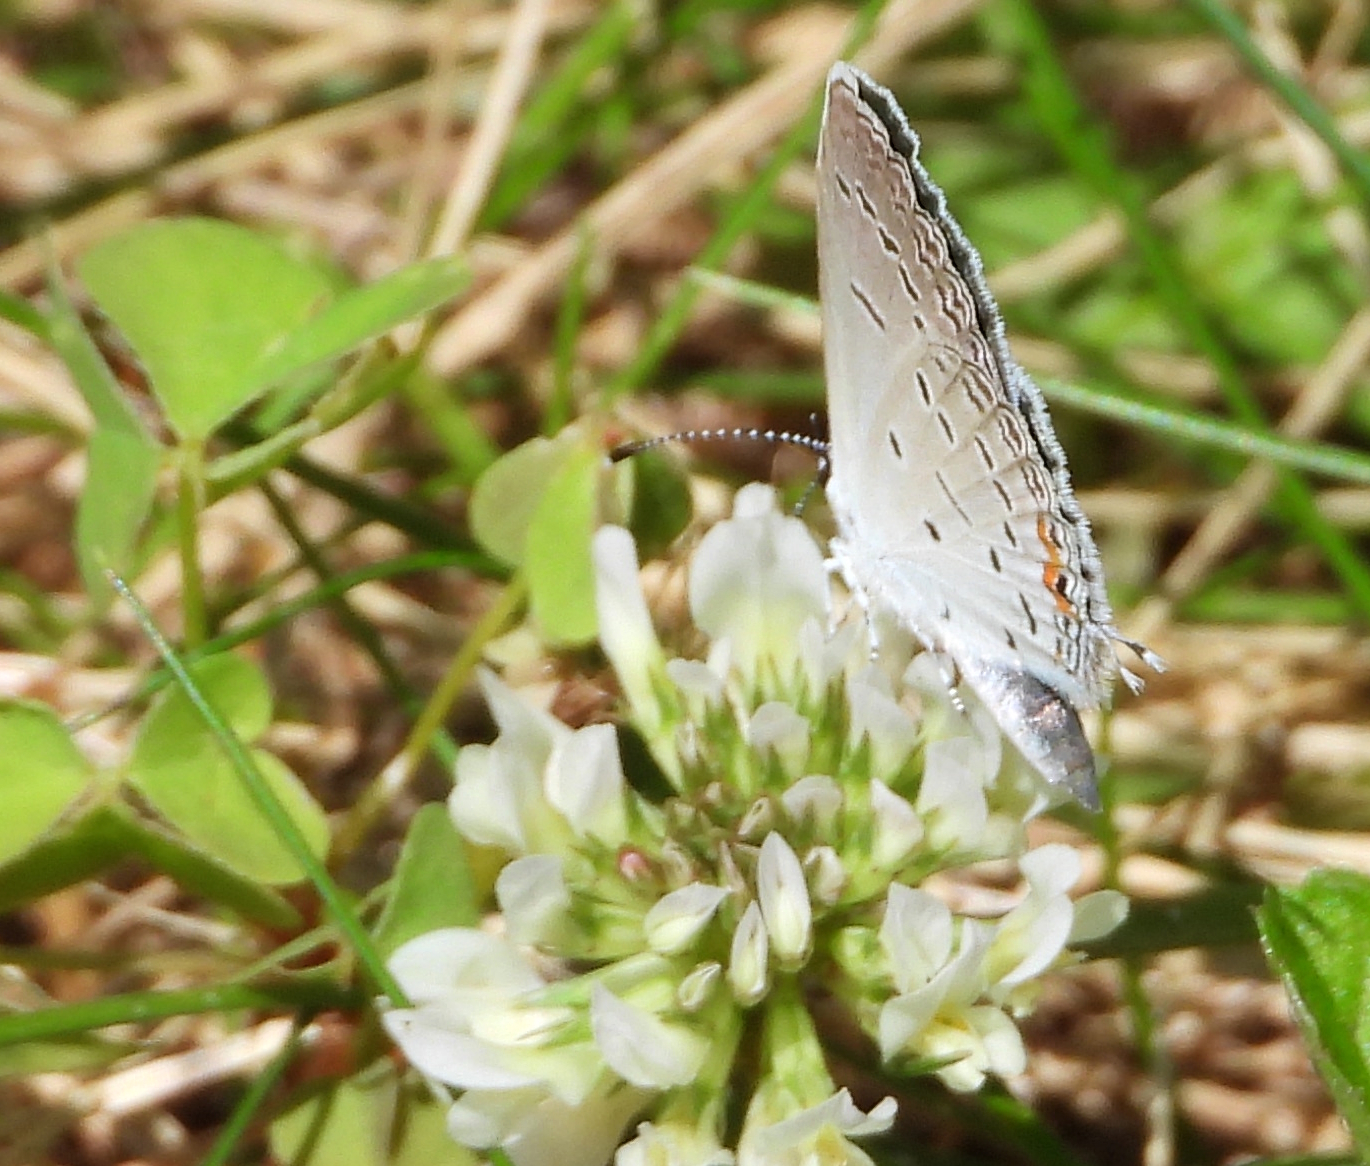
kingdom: Animalia
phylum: Arthropoda
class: Insecta
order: Lepidoptera
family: Lycaenidae
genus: Elkalyce
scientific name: Elkalyce comyntas
